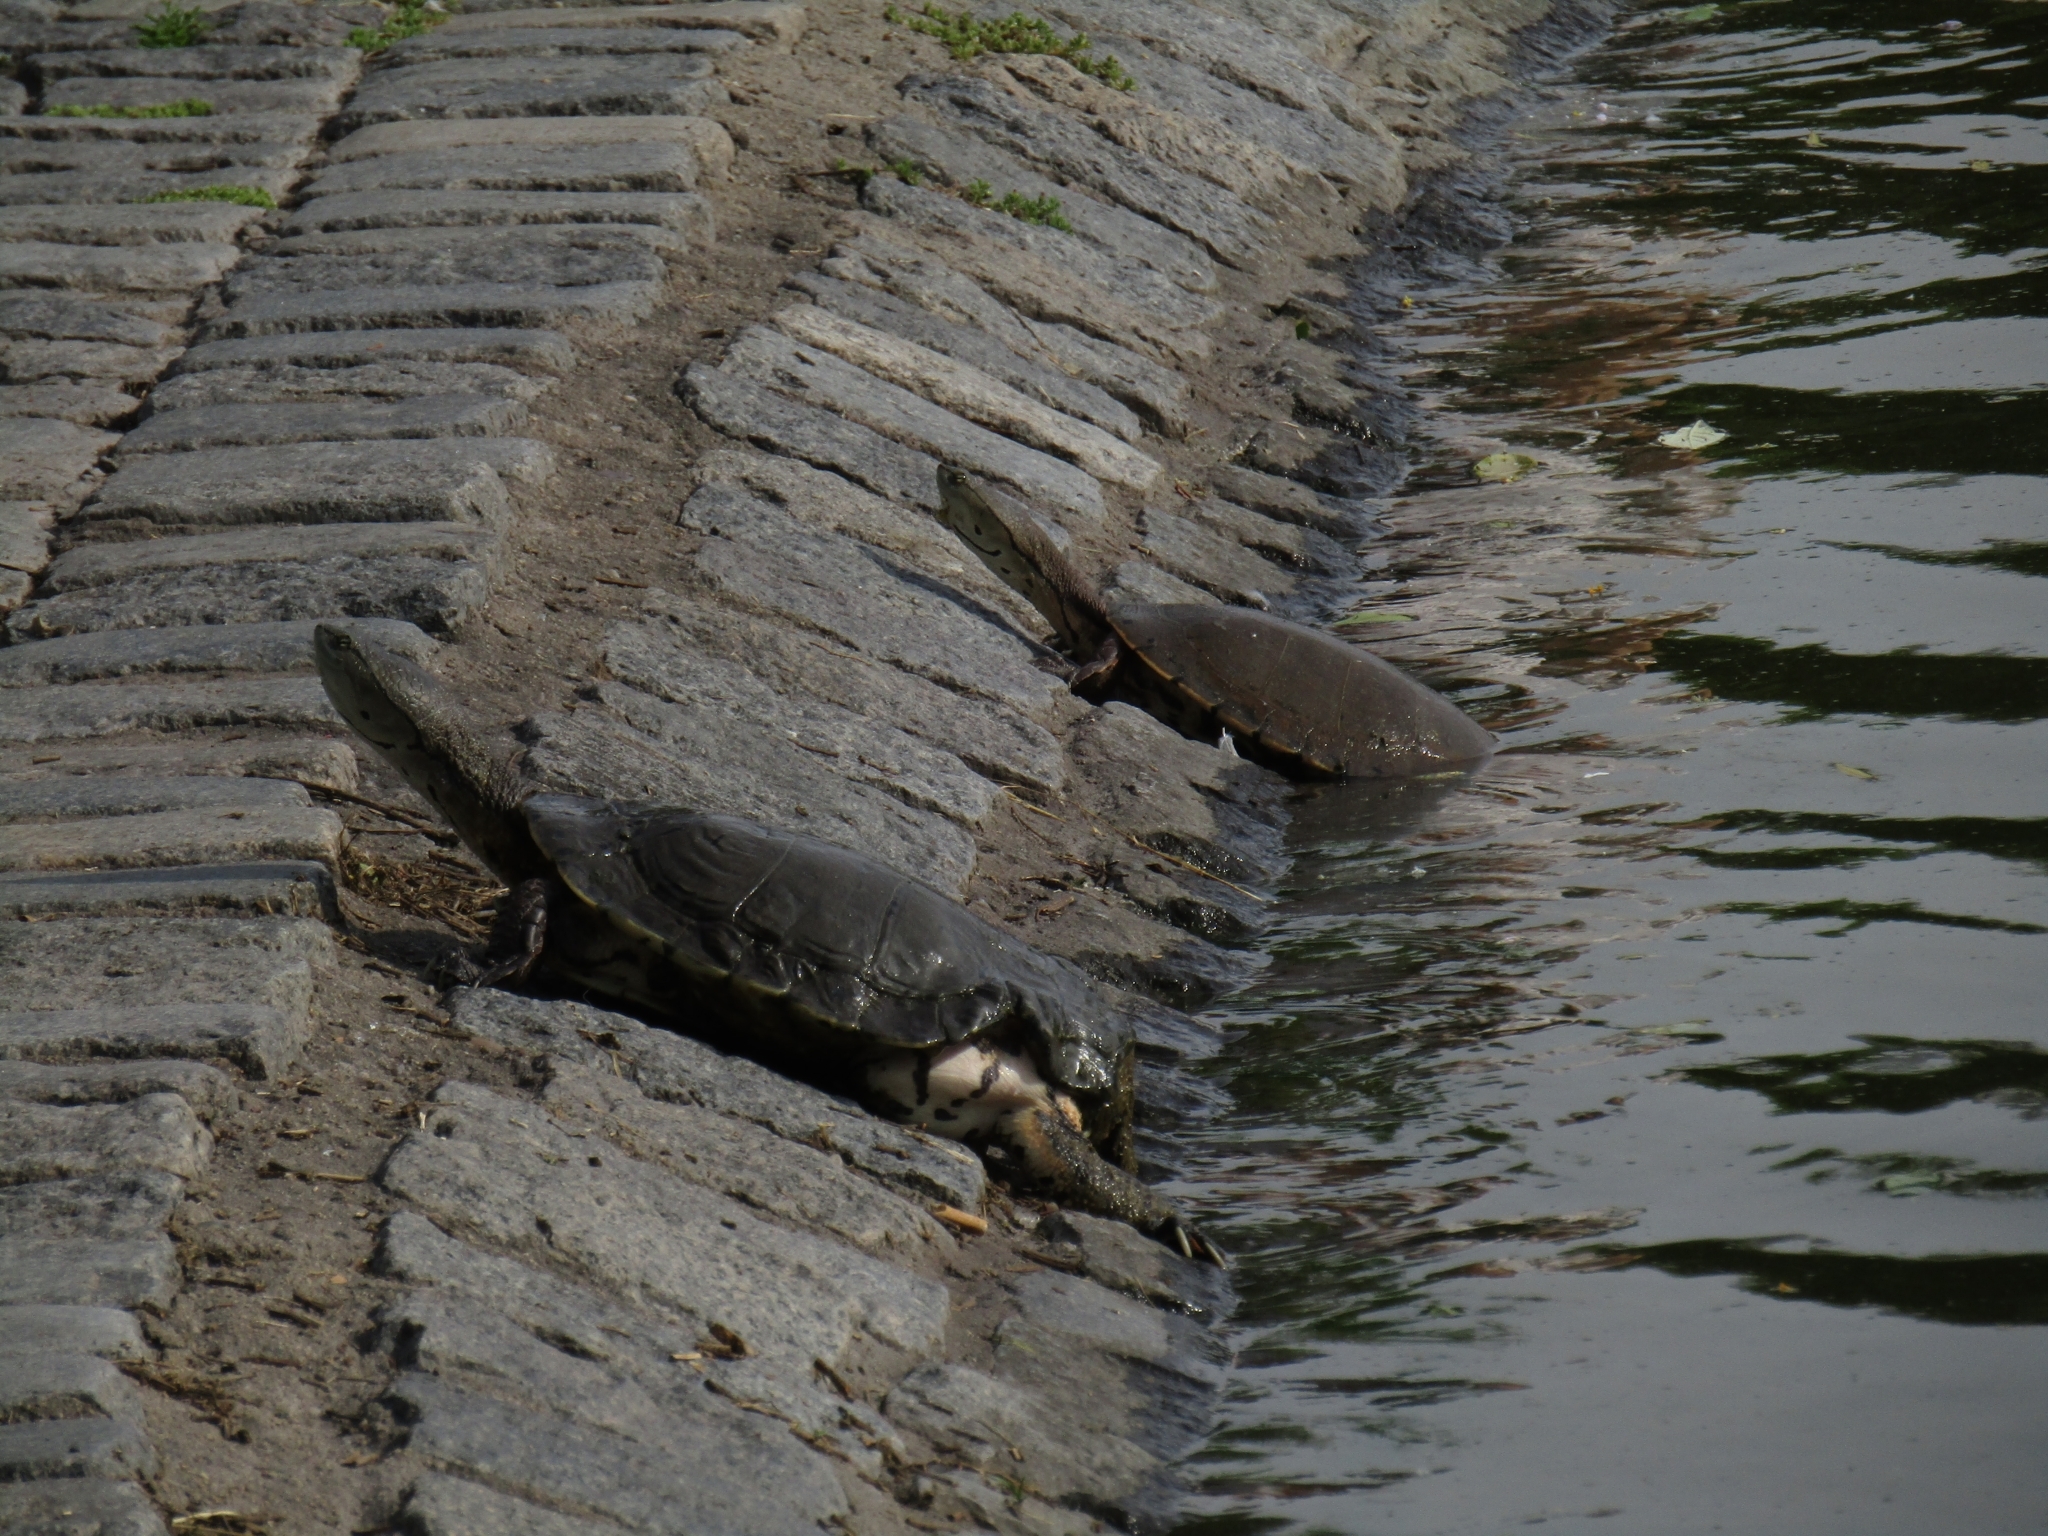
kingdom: Animalia
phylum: Chordata
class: Testudines
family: Chelidae
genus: Phrynops
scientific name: Phrynops hilarii
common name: Side-necked turtle of saint hillaire
